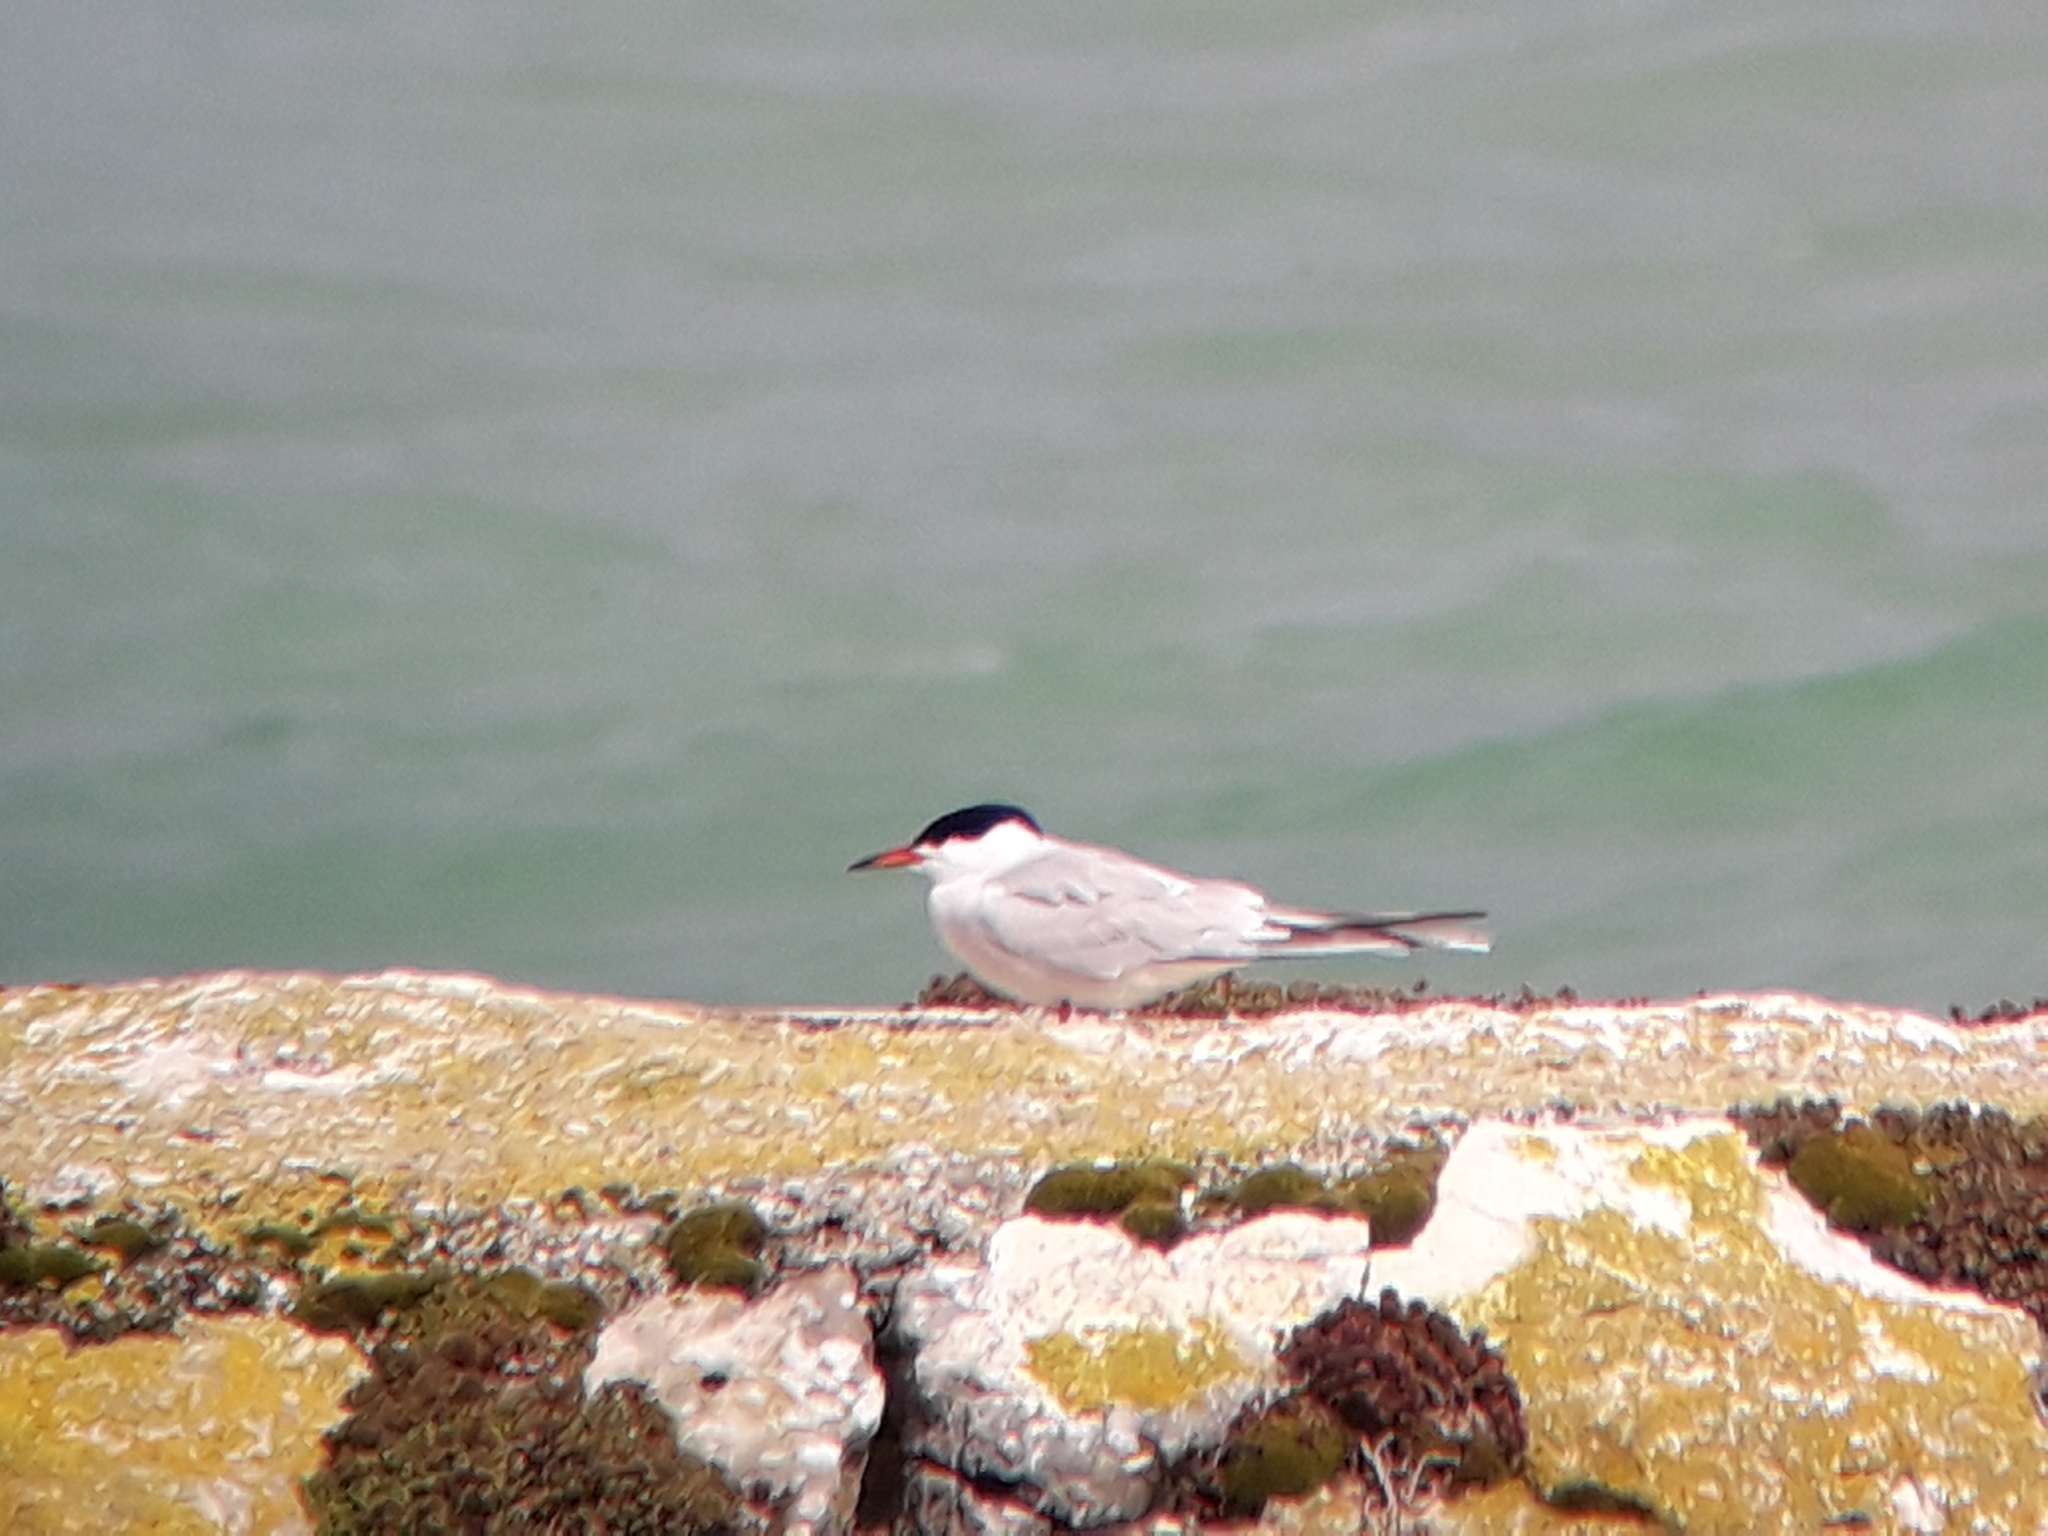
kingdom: Animalia
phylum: Chordata
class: Aves
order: Charadriiformes
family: Laridae
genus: Sterna
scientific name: Sterna hirundo
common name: Common tern
